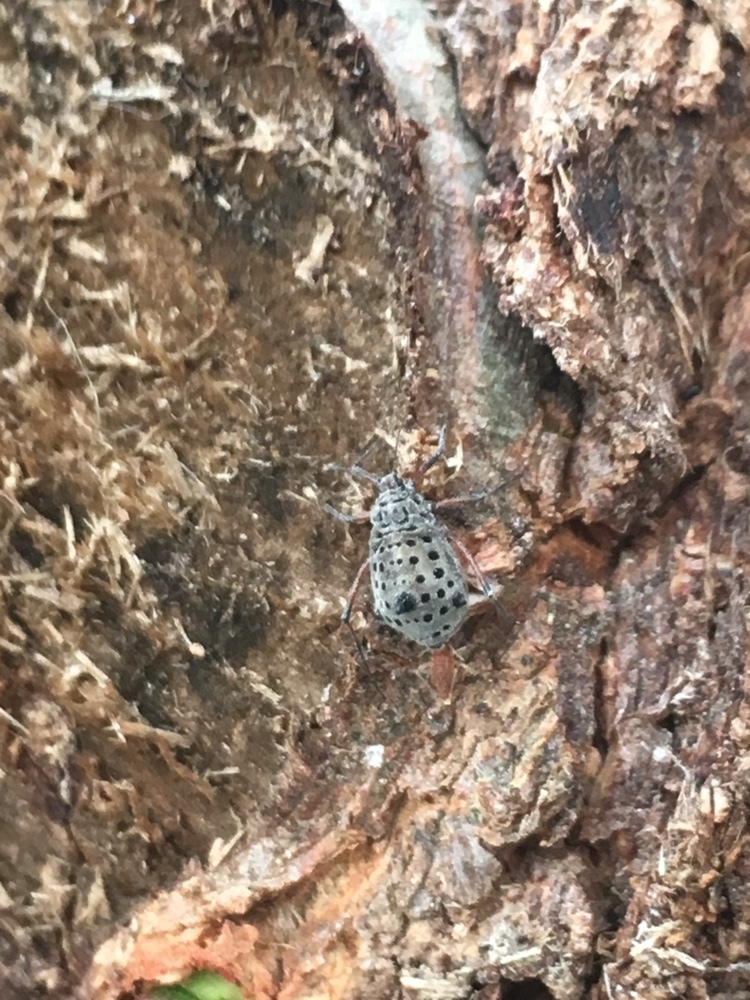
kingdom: Animalia
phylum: Arthropoda
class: Insecta
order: Hemiptera
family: Aphididae
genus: Tuberolachnus
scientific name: Tuberolachnus salignus
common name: Giant willow aphid
